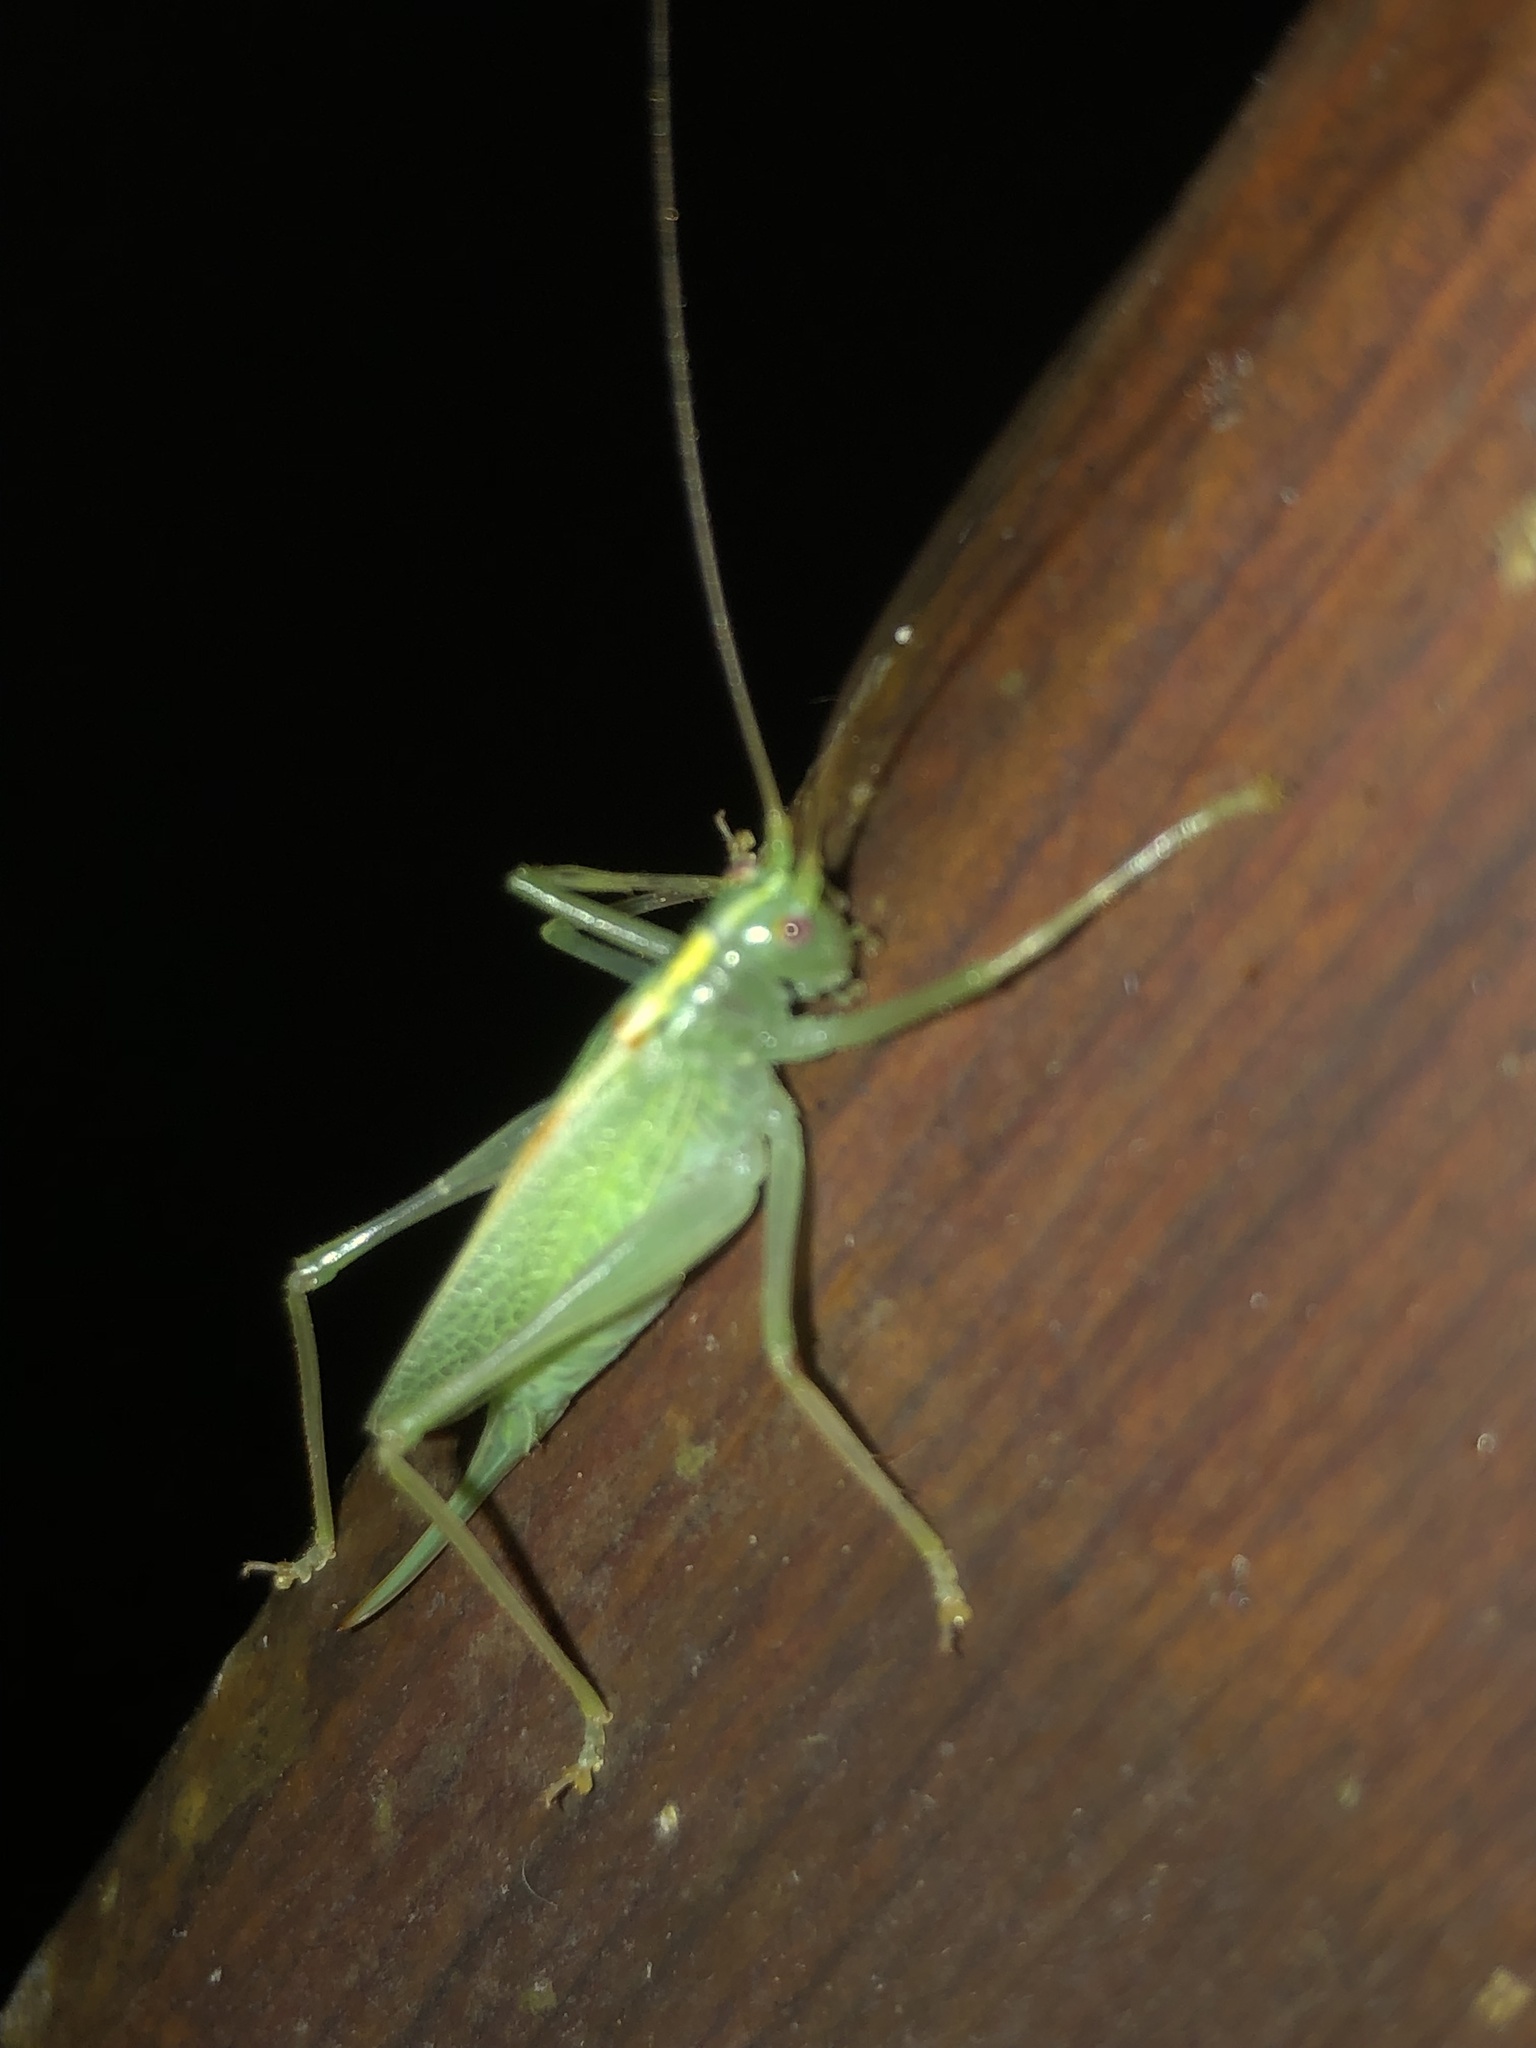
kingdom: Animalia
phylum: Arthropoda
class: Insecta
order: Orthoptera
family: Tettigoniidae
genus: Meconema
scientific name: Meconema thalassinum
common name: Oak bush-cricket
